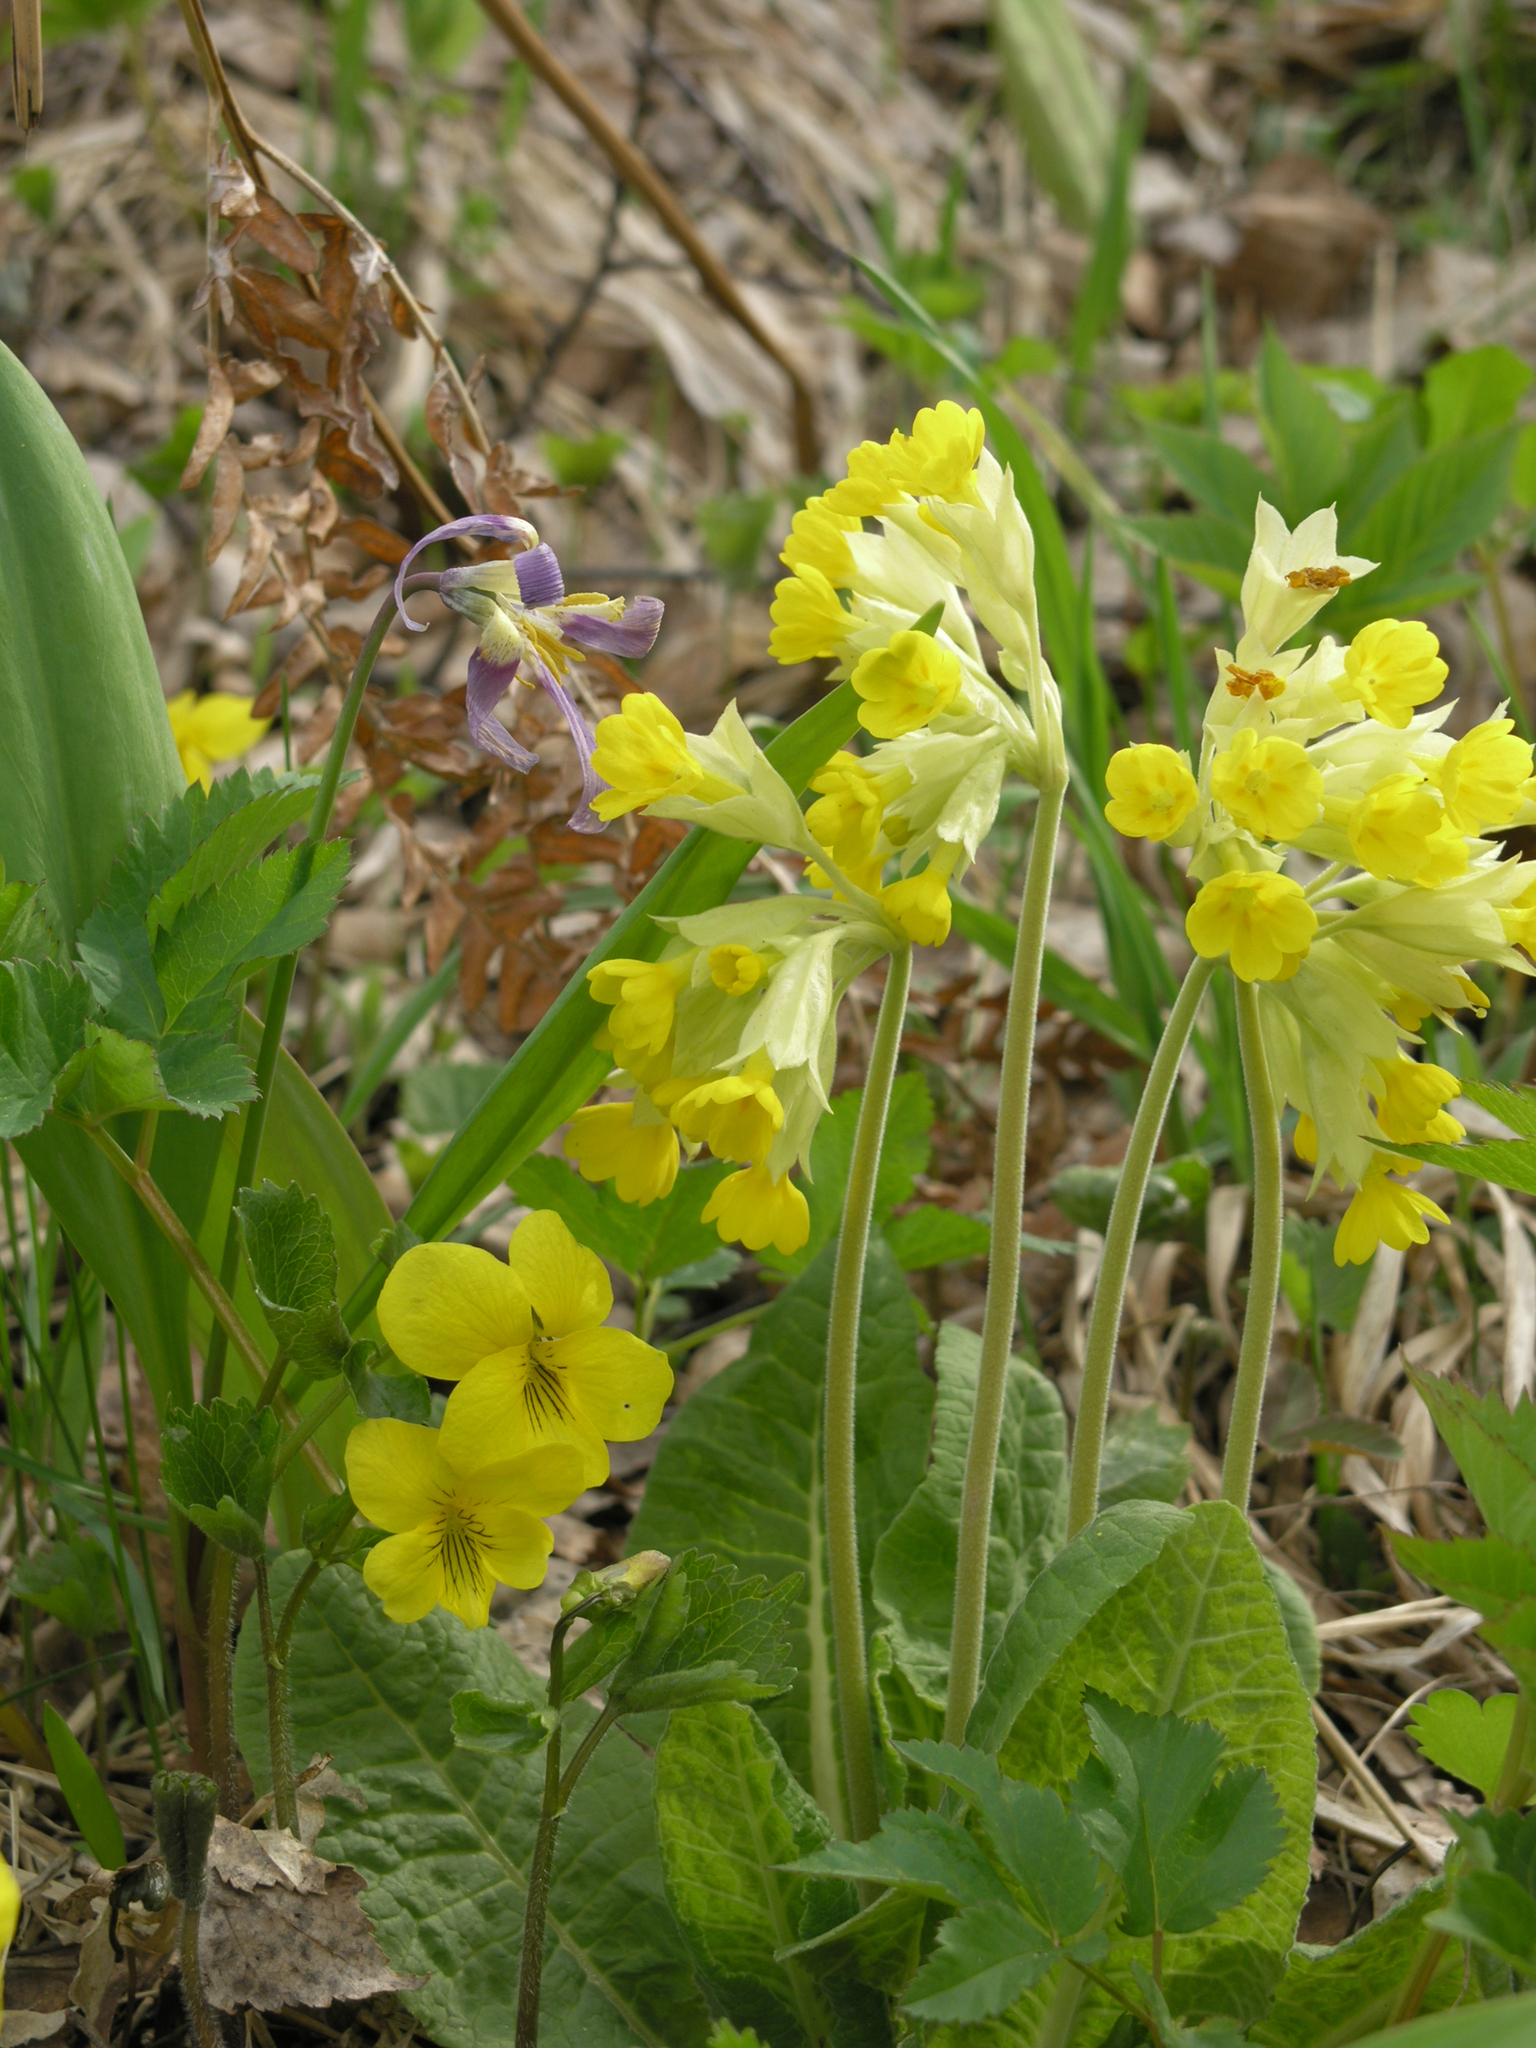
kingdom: Plantae
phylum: Tracheophyta
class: Magnoliopsida
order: Malpighiales
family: Violaceae
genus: Viola
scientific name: Viola uniflora
